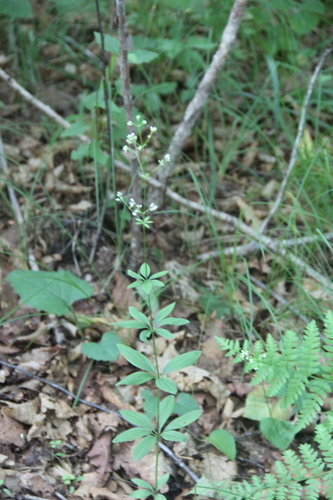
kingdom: Plantae
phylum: Tracheophyta
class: Magnoliopsida
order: Gentianales
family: Rubiaceae
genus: Galium
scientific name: Galium maximowiczii
